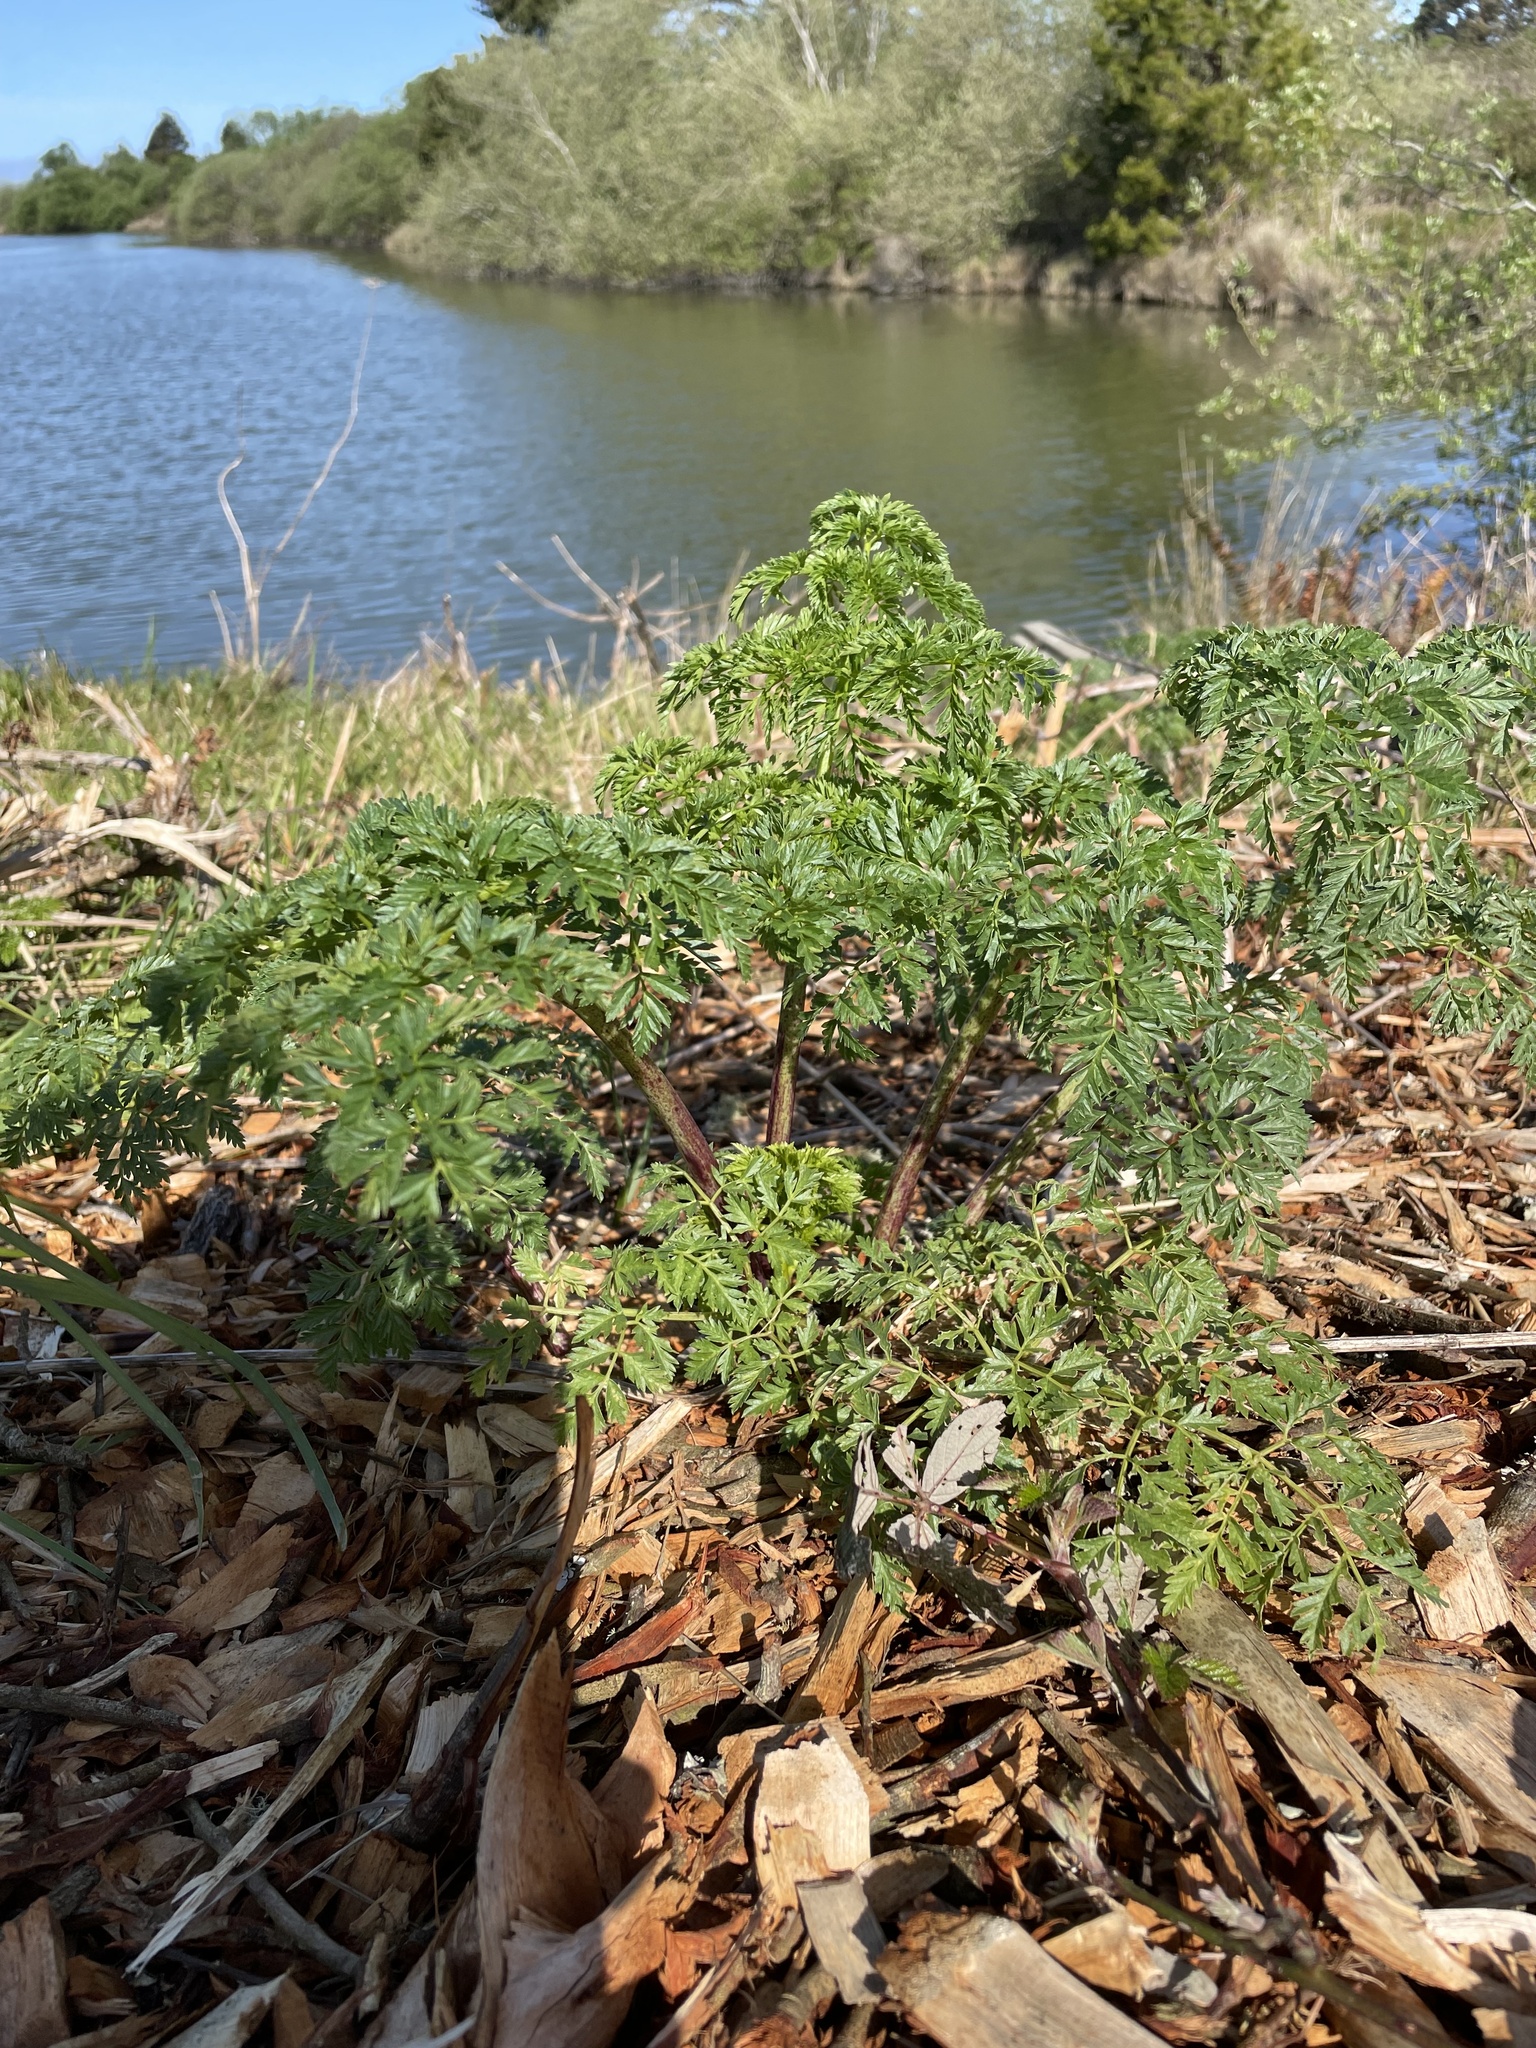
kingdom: Plantae
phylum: Tracheophyta
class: Magnoliopsida
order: Apiales
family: Apiaceae
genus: Conium
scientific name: Conium maculatum
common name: Hemlock
